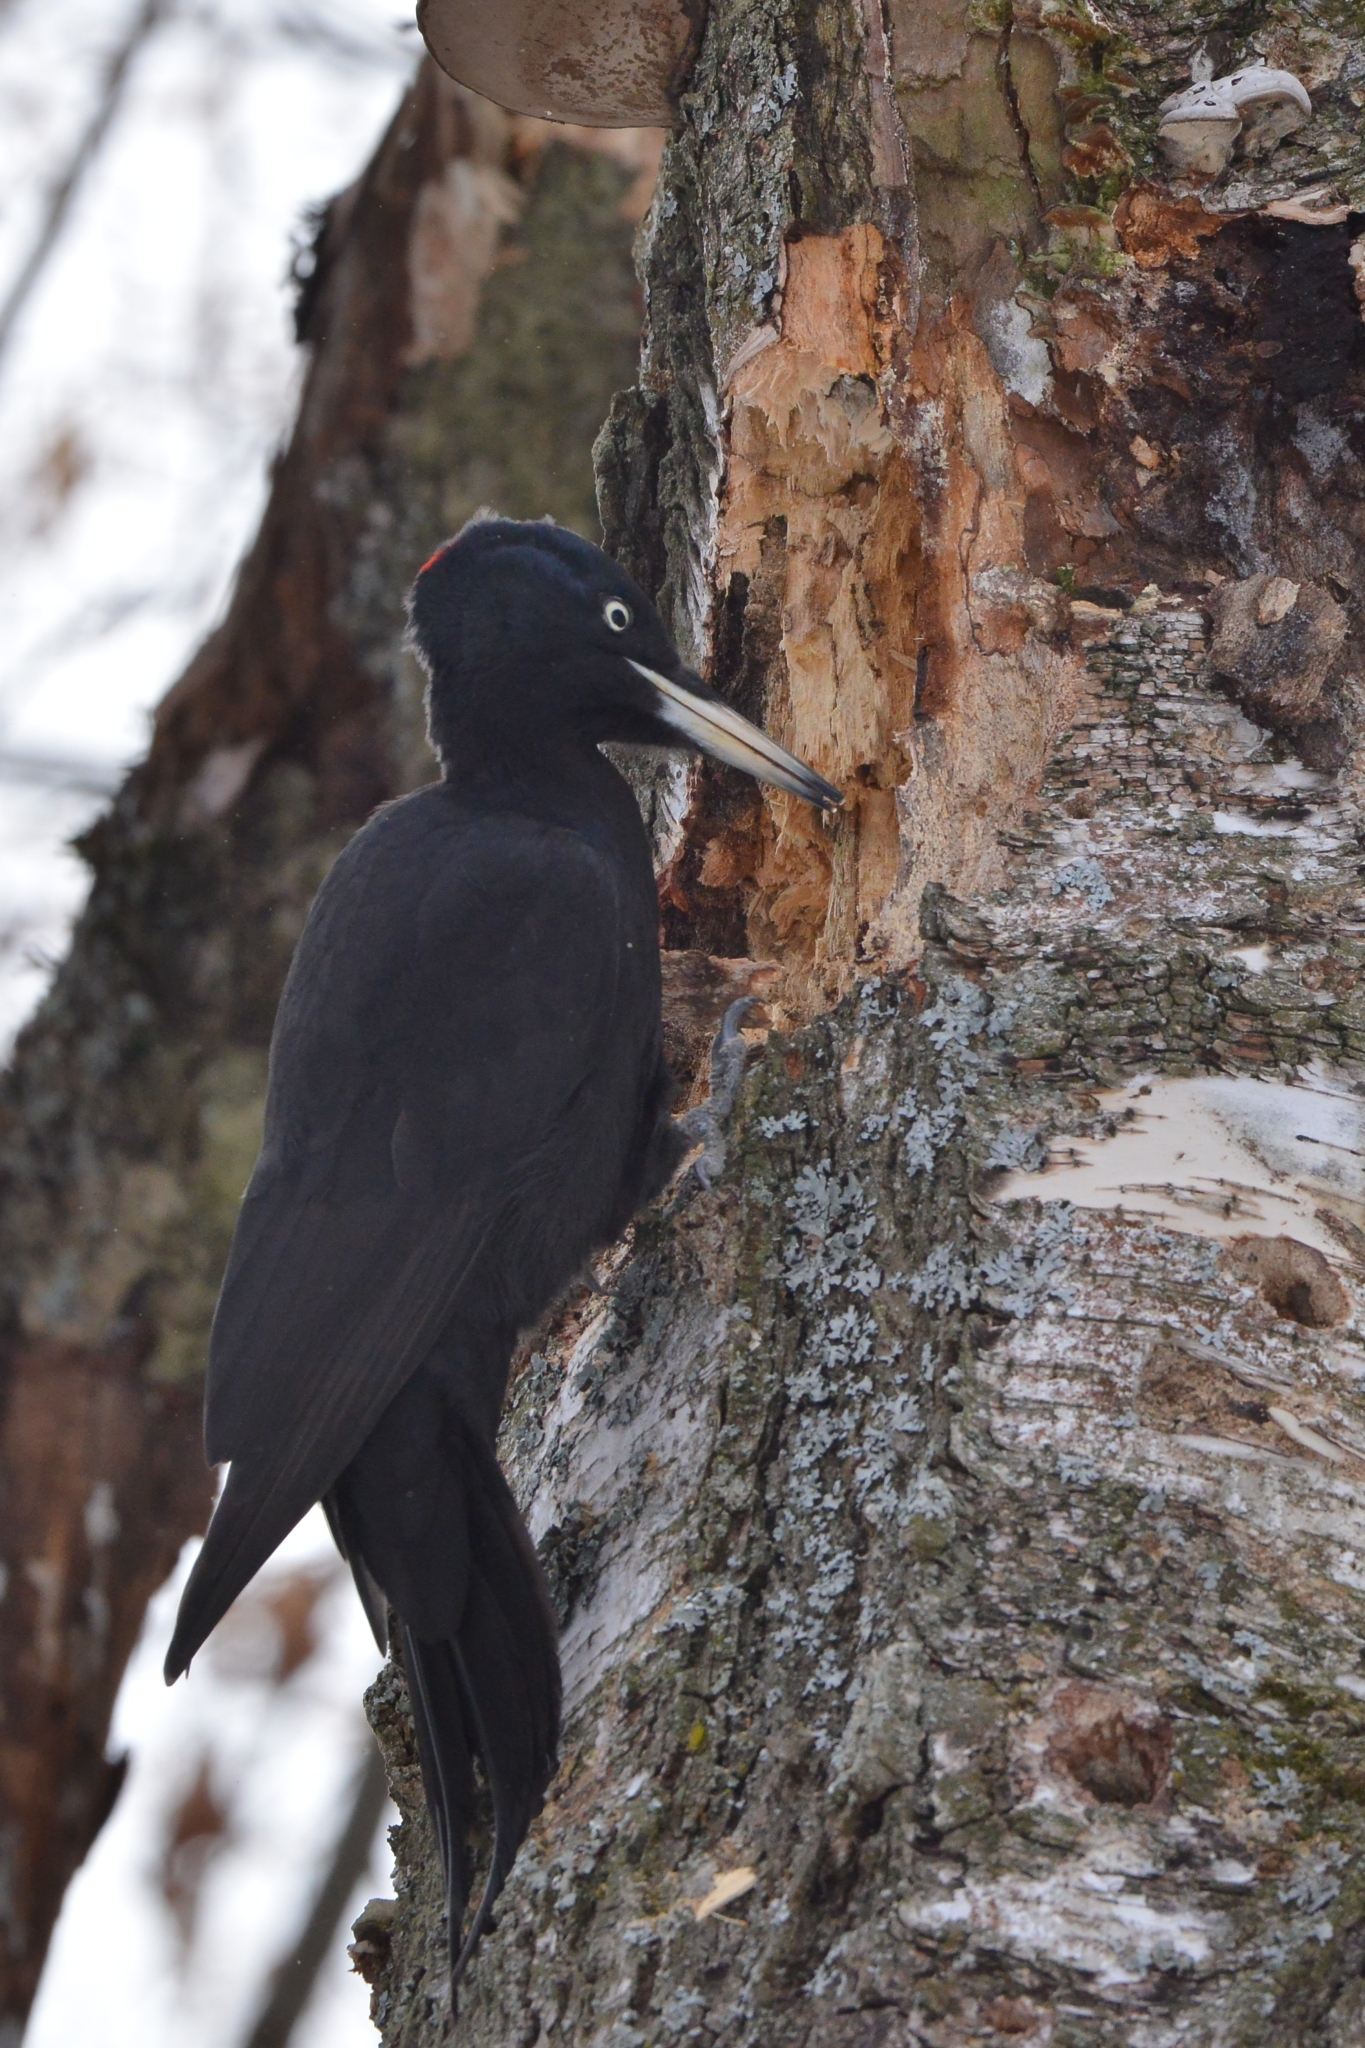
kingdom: Animalia
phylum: Chordata
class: Aves
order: Piciformes
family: Picidae
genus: Dryocopus
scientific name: Dryocopus martius
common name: Black woodpecker
